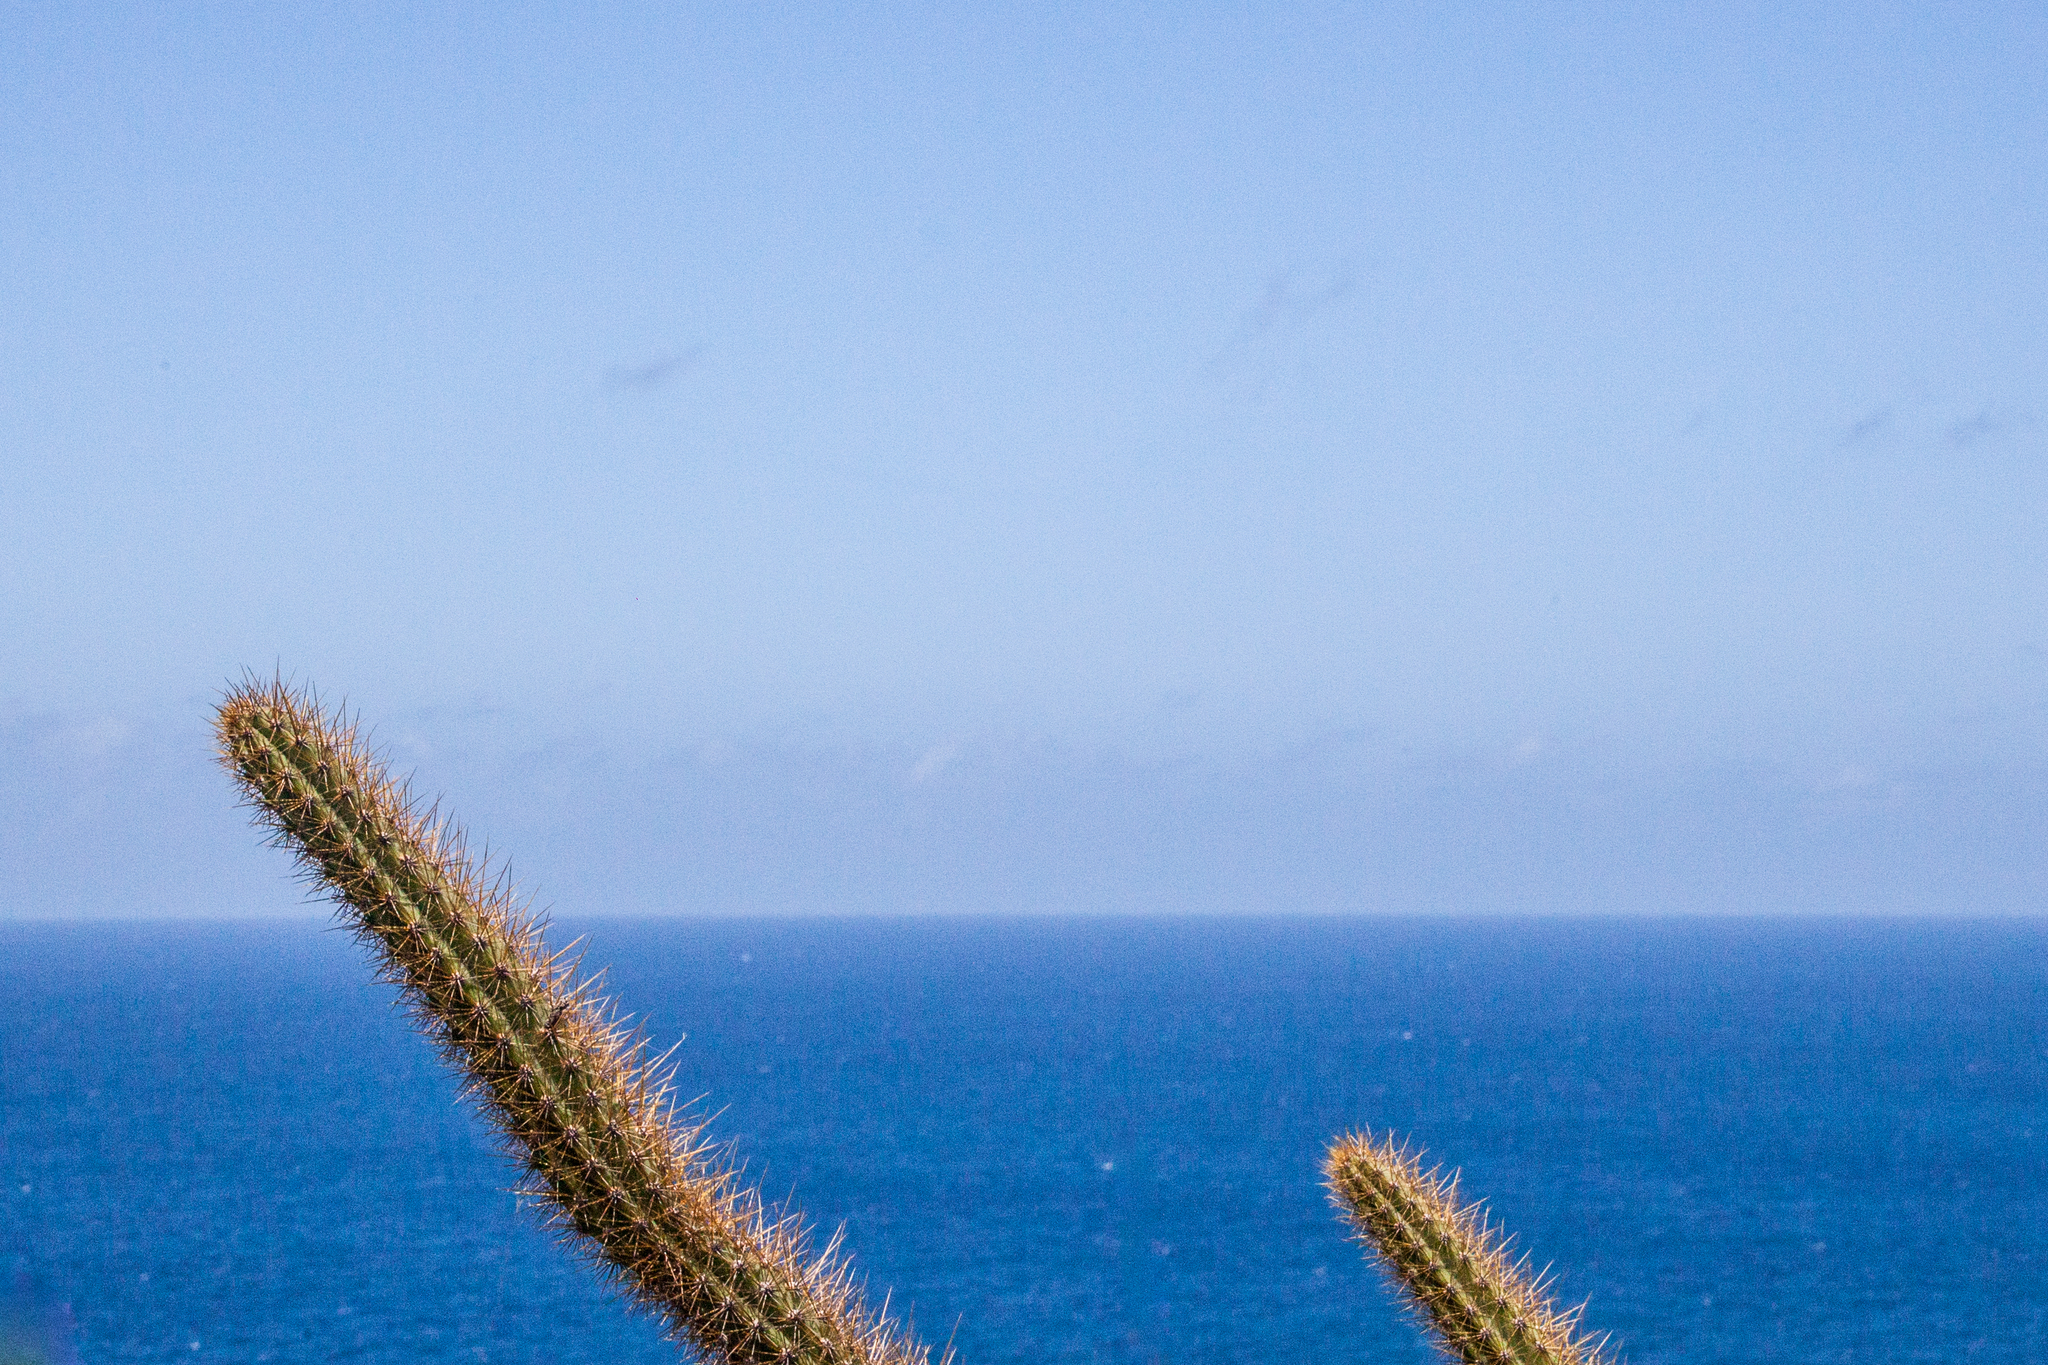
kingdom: Plantae
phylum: Tracheophyta
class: Magnoliopsida
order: Caryophyllales
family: Cactaceae
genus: Cereus
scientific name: Cereus insularis
